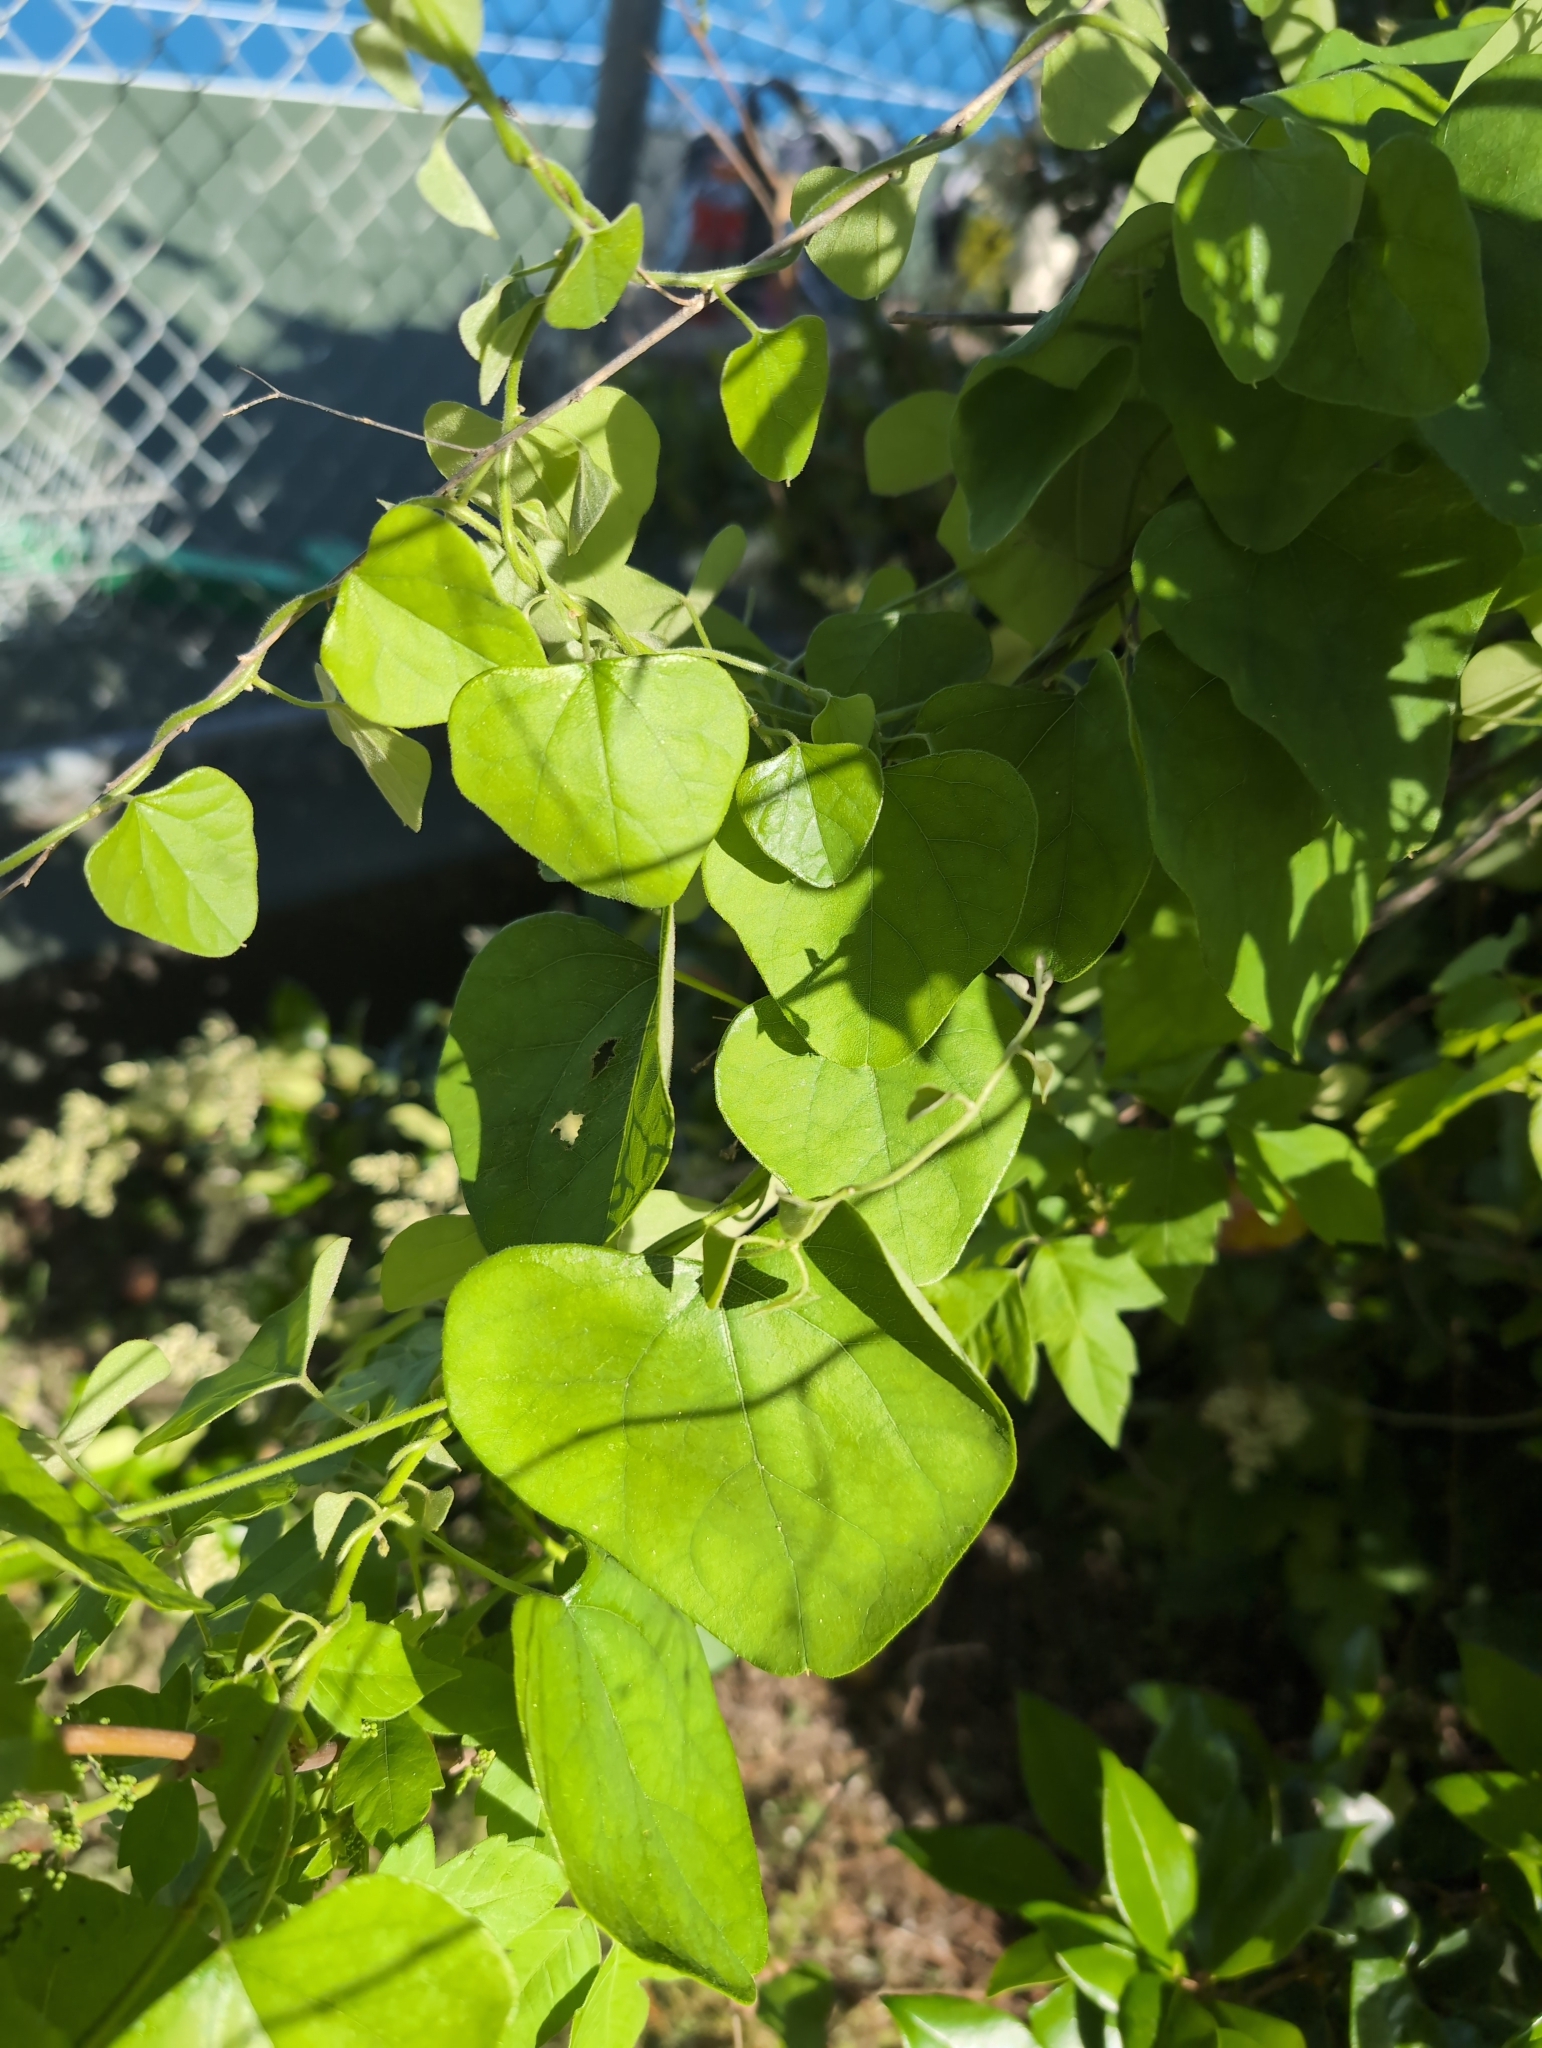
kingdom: Plantae
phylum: Tracheophyta
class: Magnoliopsida
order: Ranunculales
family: Menispermaceae
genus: Cocculus
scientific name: Cocculus carolinus
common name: Carolina moonseed
